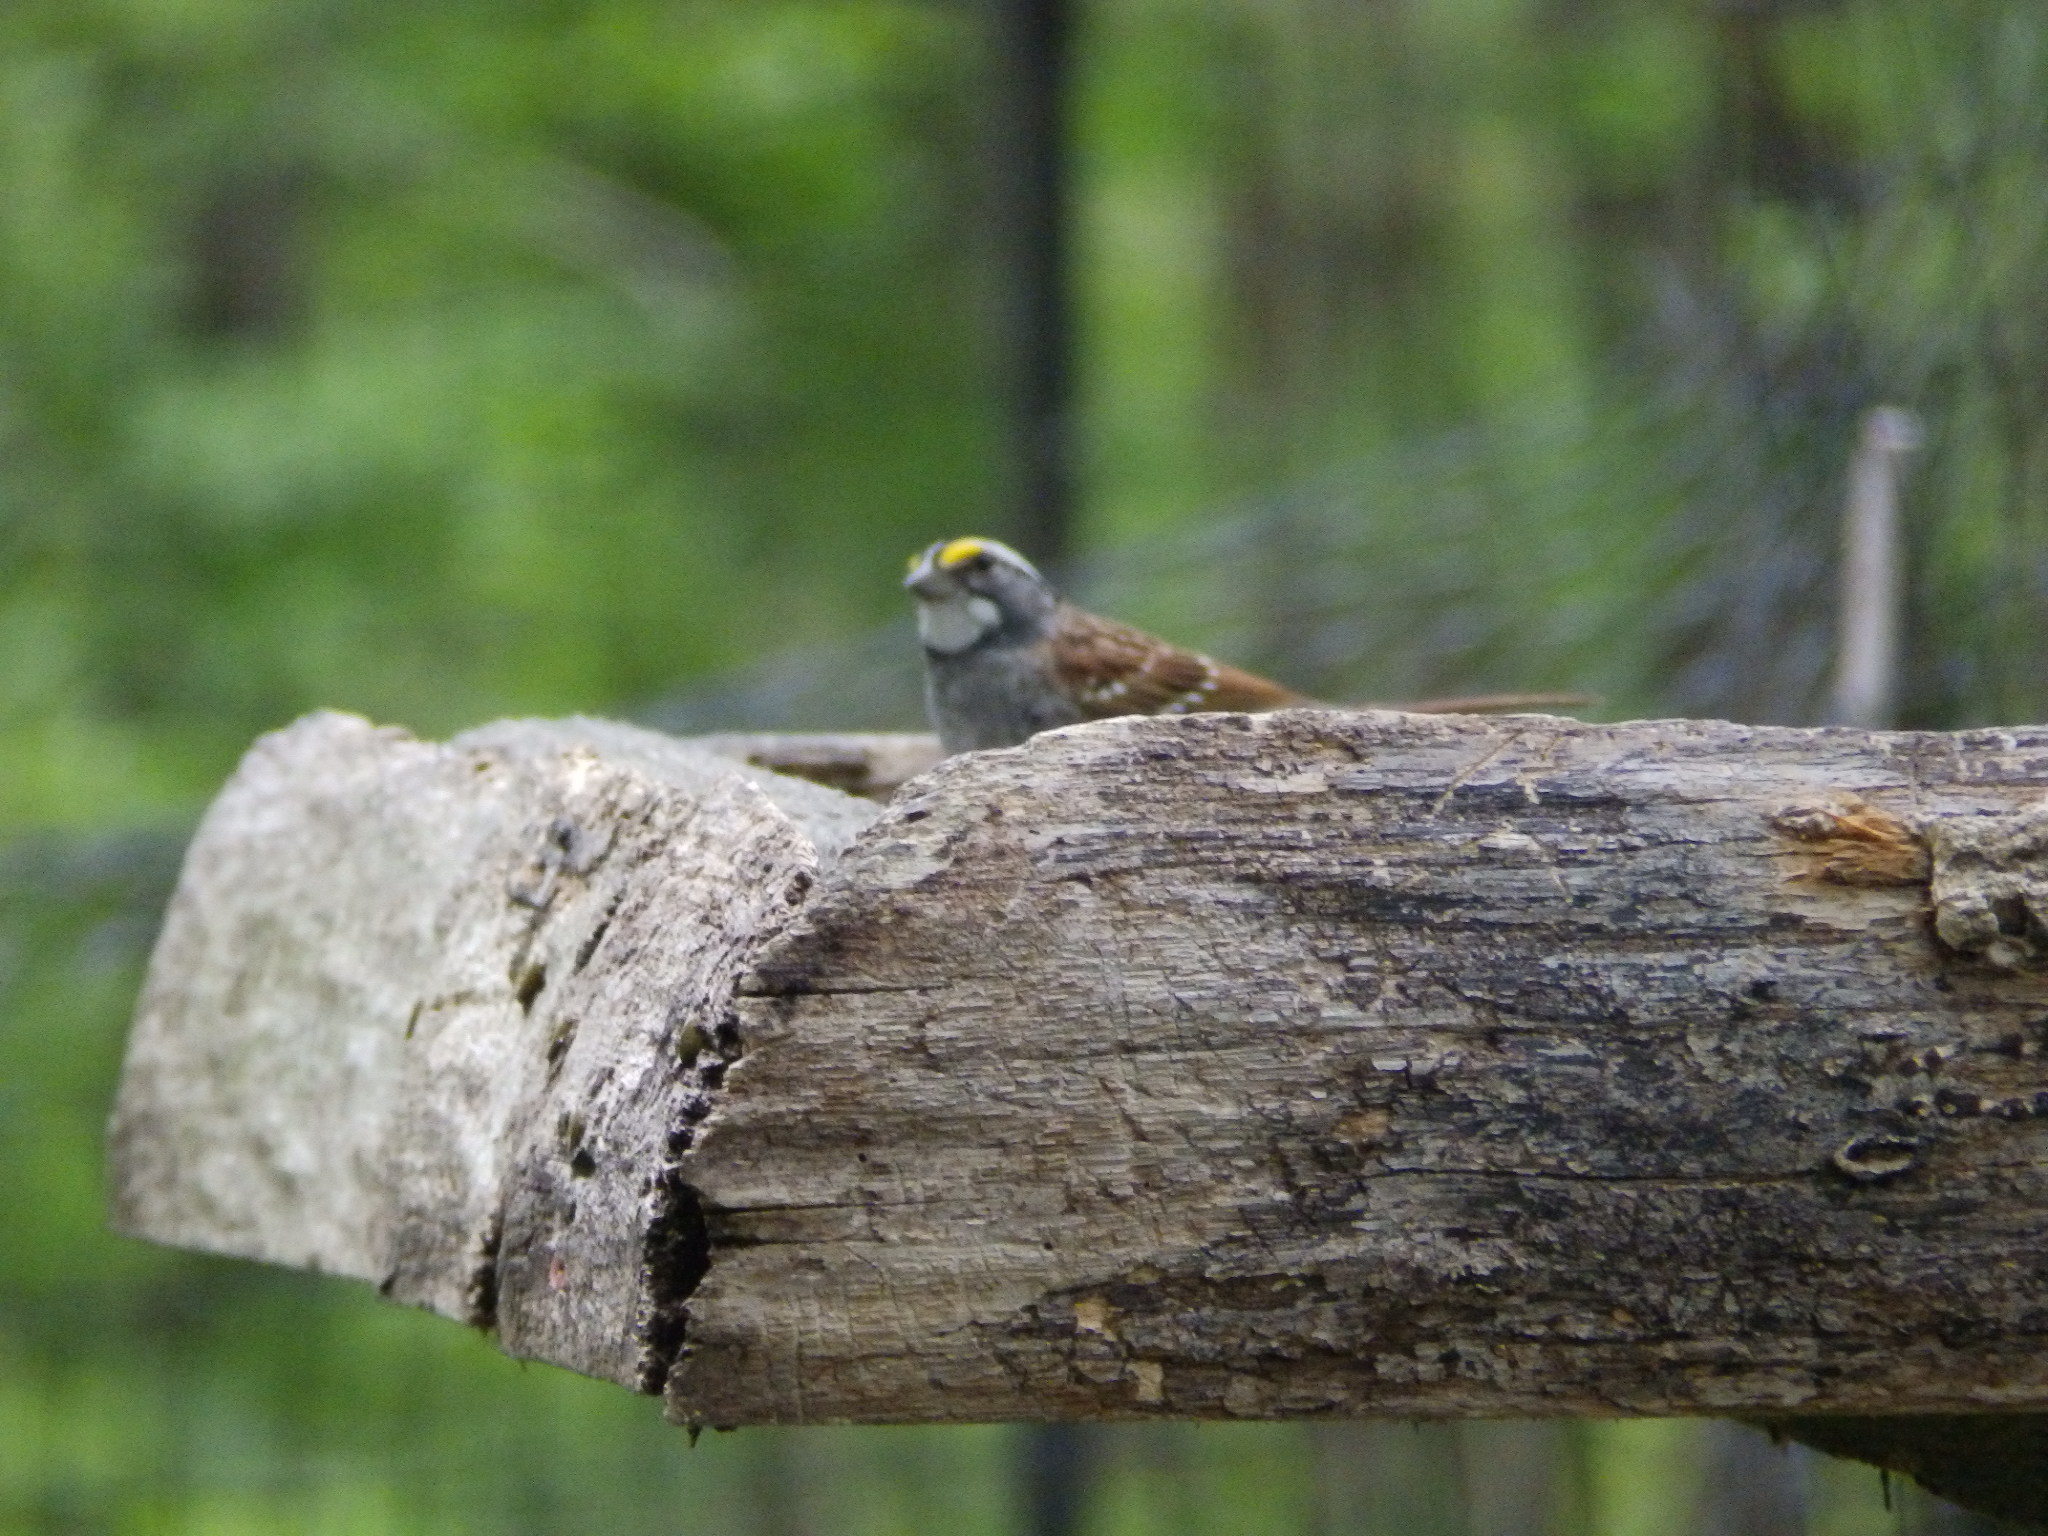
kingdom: Animalia
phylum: Chordata
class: Aves
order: Passeriformes
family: Passerellidae
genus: Zonotrichia
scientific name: Zonotrichia albicollis
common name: White-throated sparrow
